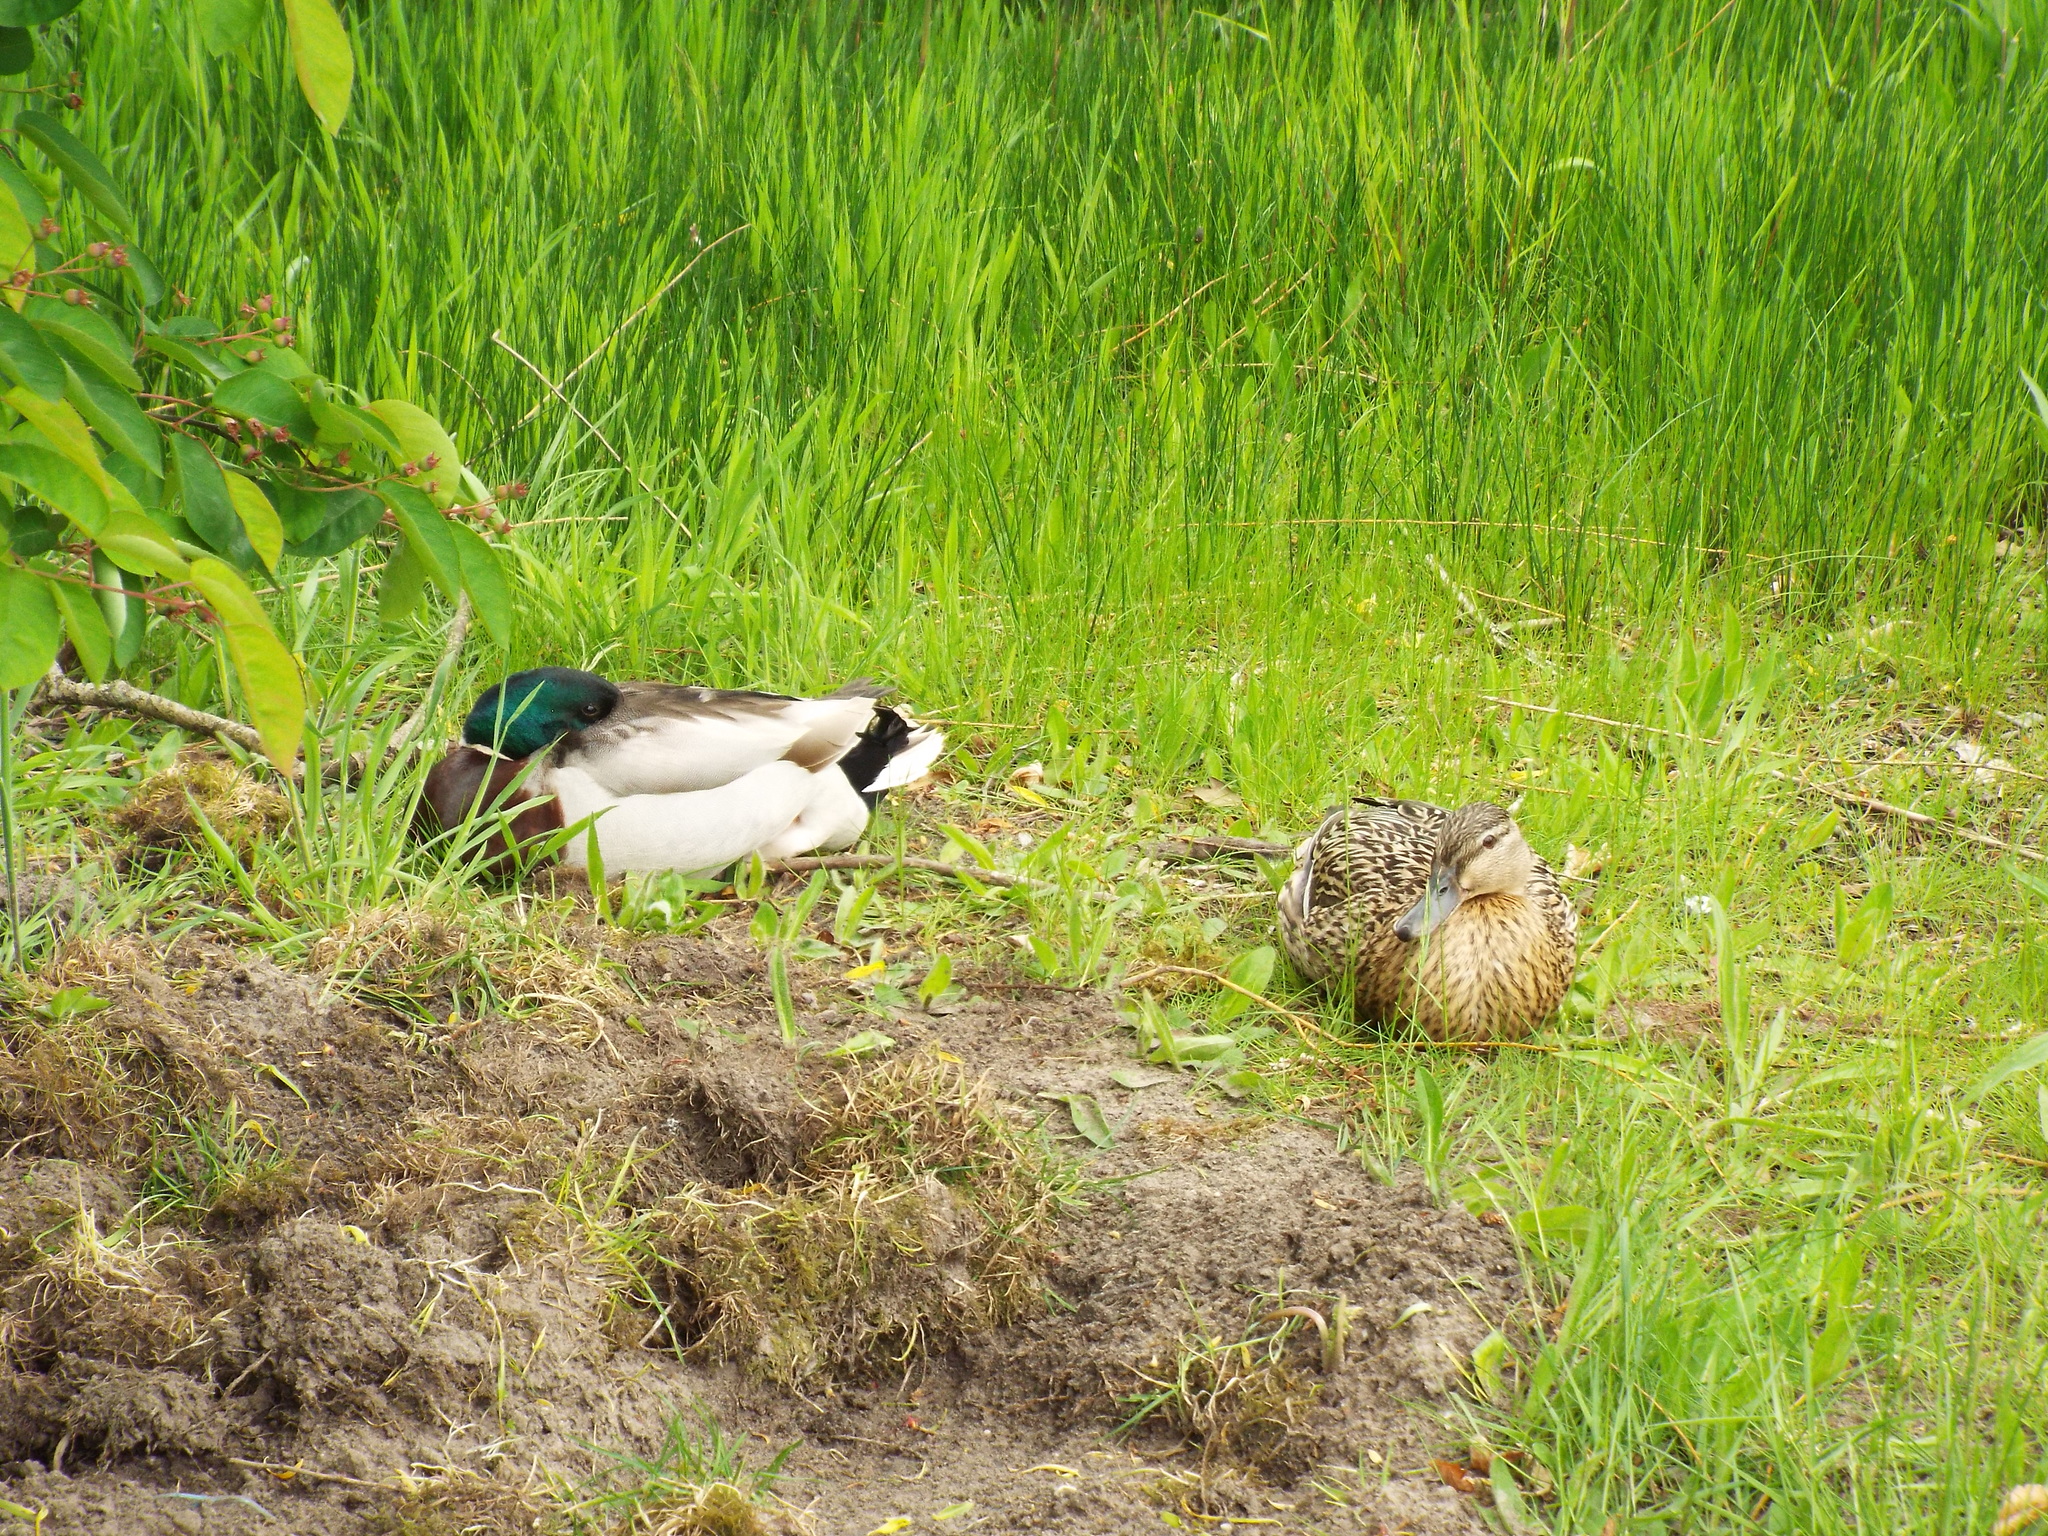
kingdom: Animalia
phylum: Chordata
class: Aves
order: Anseriformes
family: Anatidae
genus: Anas
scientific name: Anas platyrhynchos
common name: Mallard
